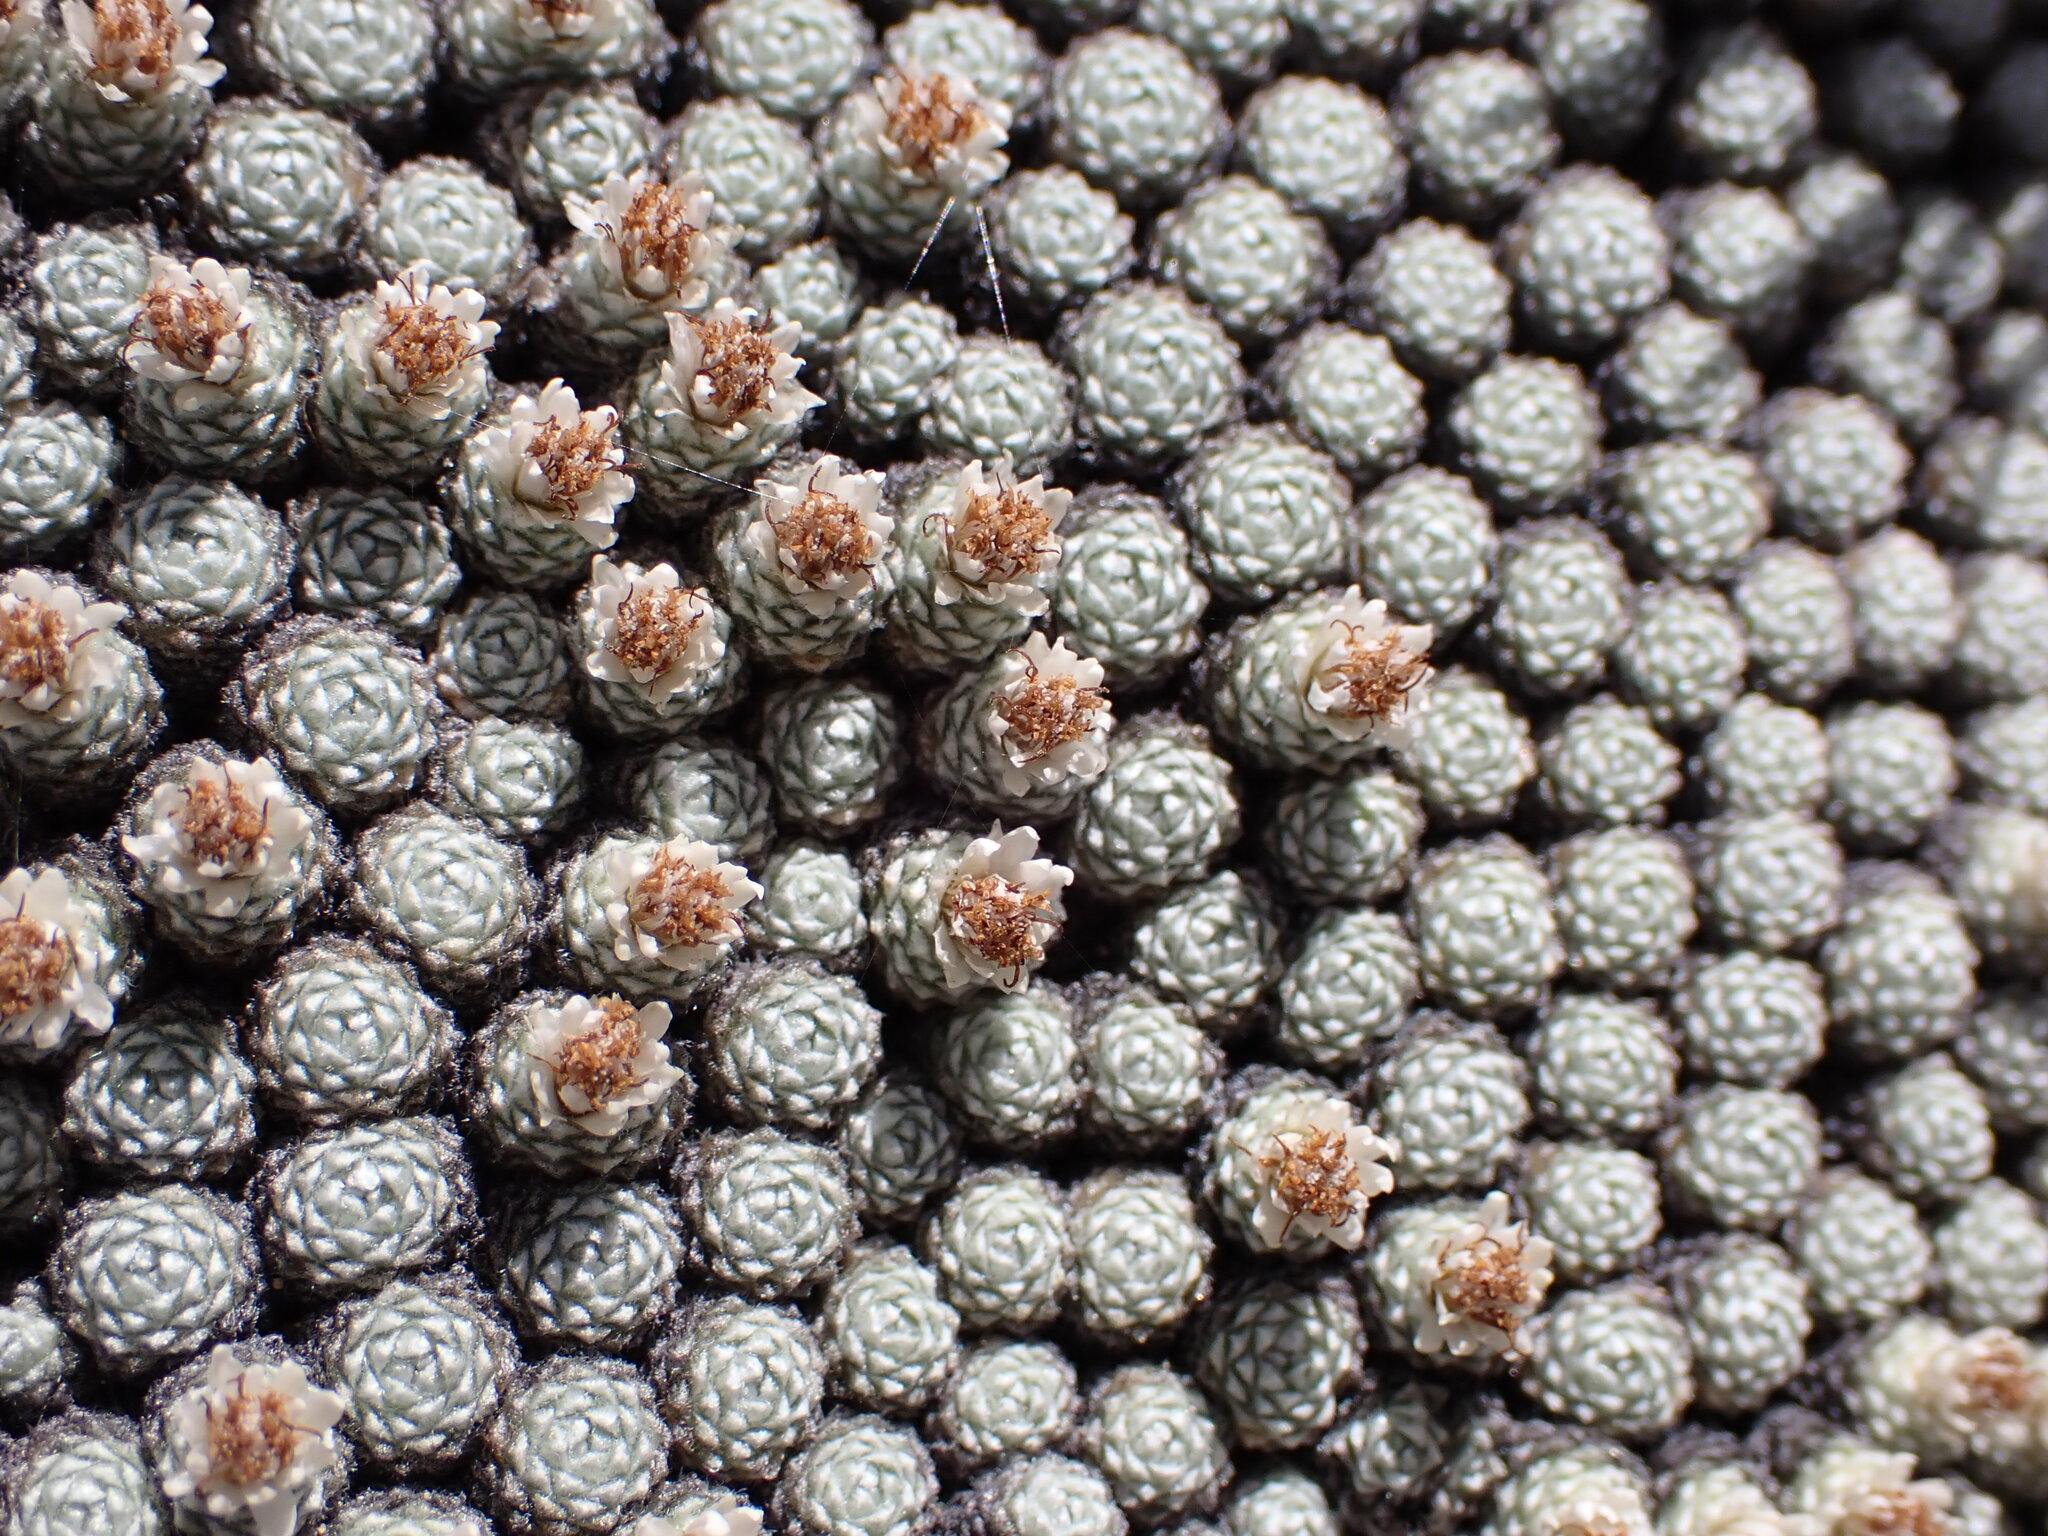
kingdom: Plantae
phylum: Tracheophyta
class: Magnoliopsida
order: Asterales
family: Asteraceae
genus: Raoulia
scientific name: Raoulia bryoides
